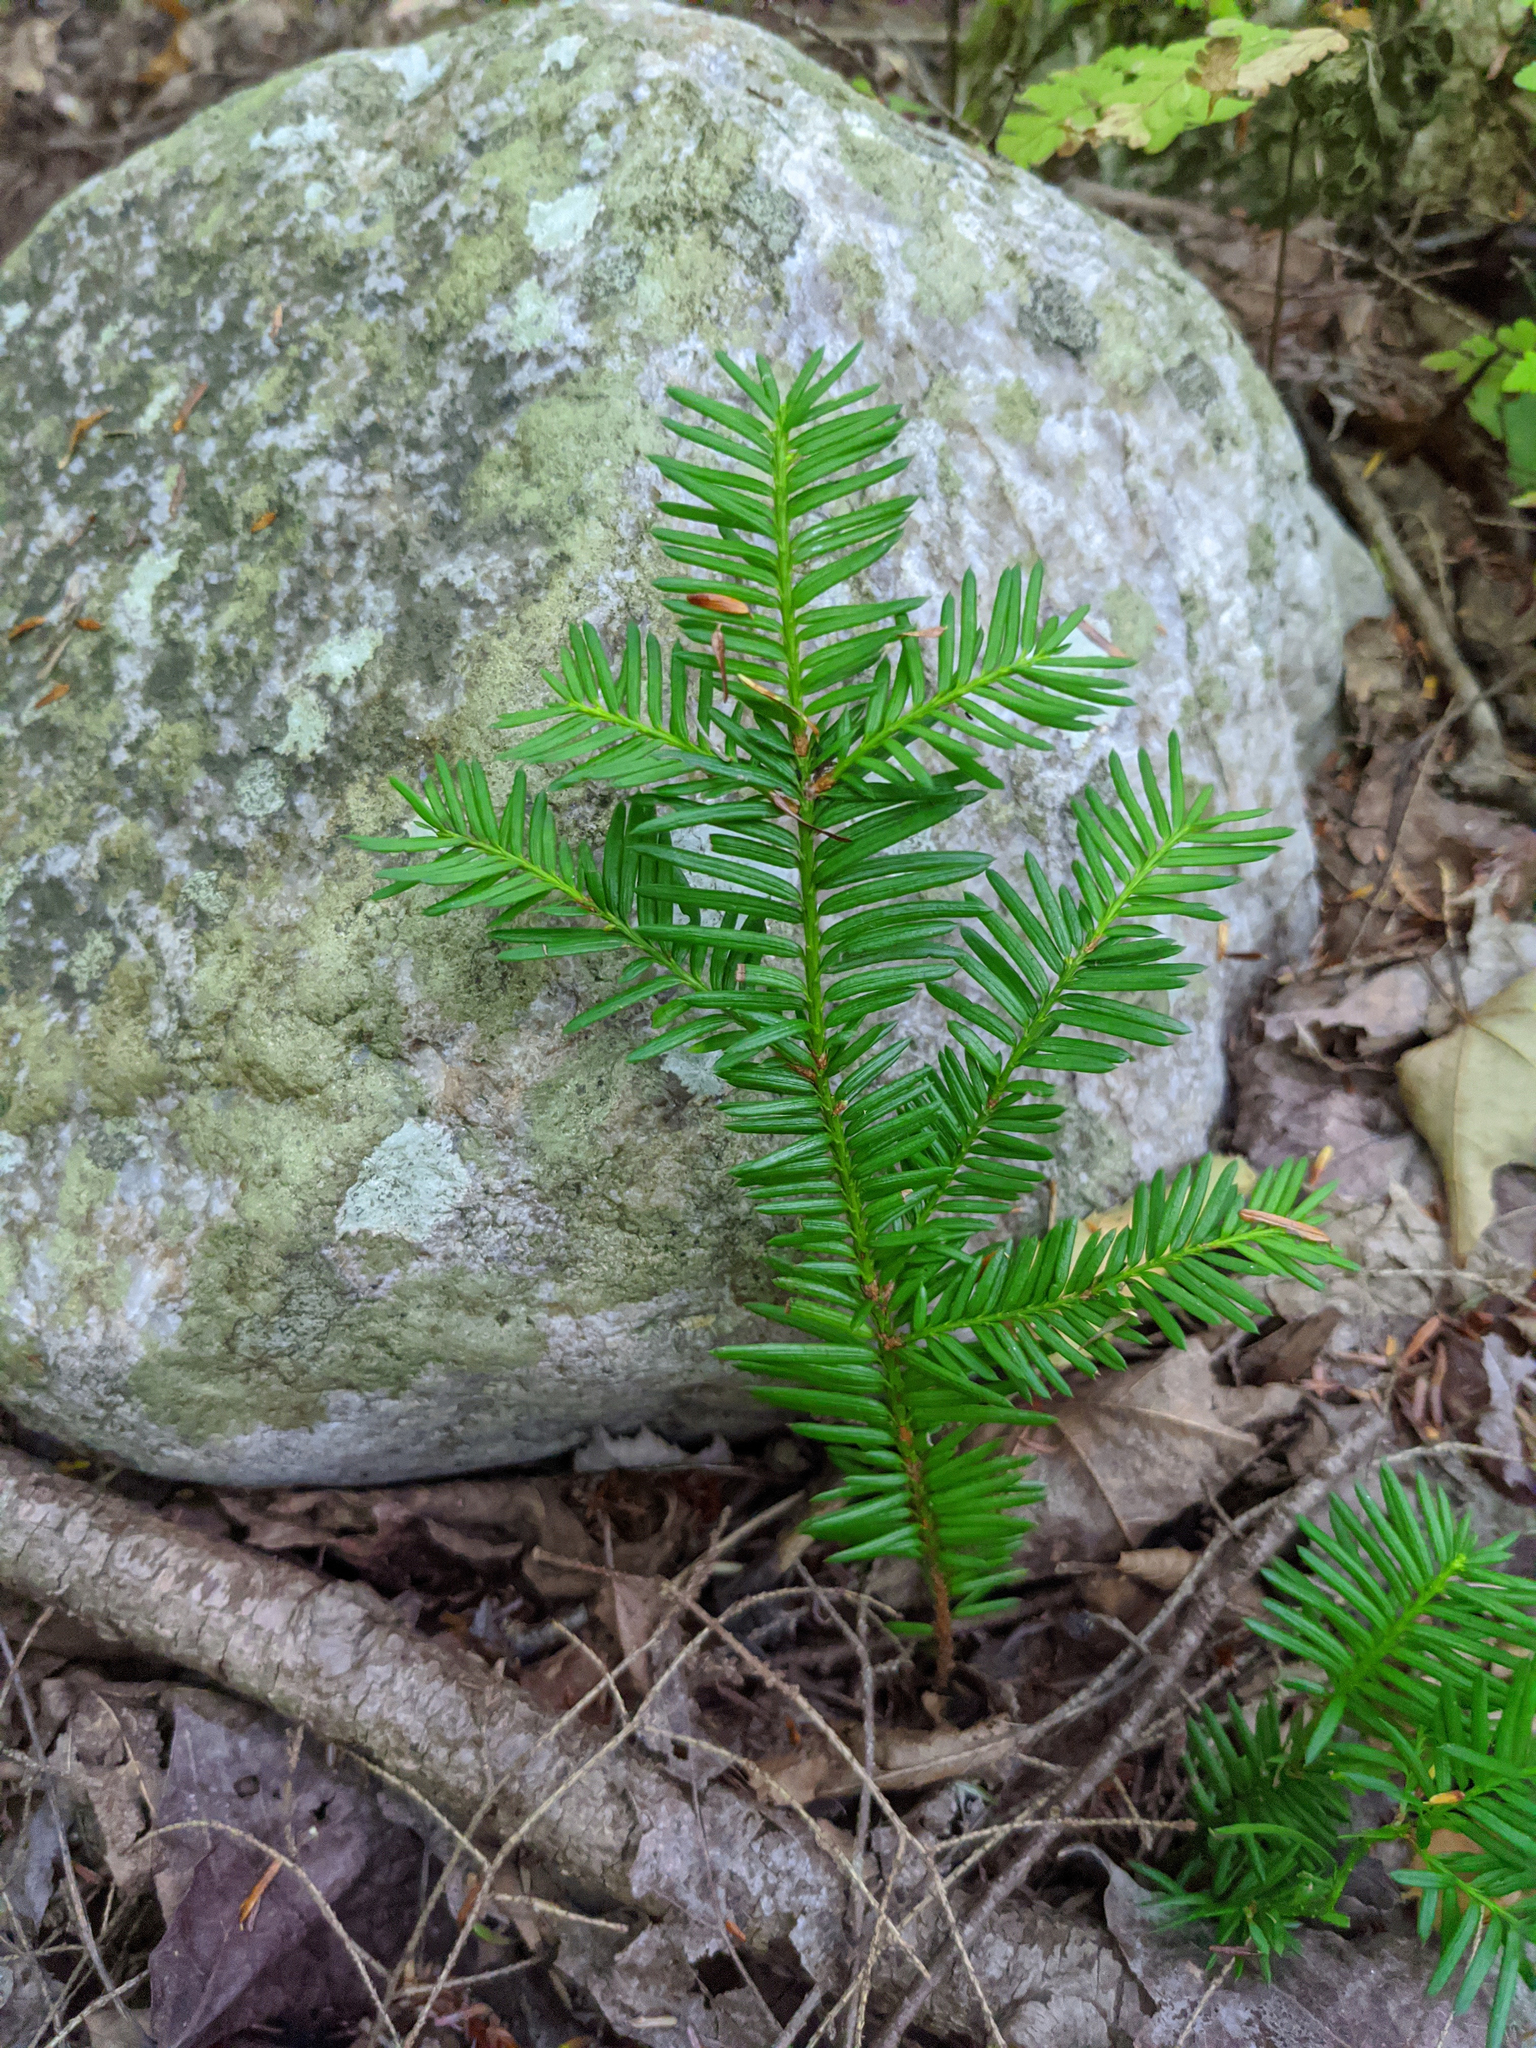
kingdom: Plantae
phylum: Tracheophyta
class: Pinopsida
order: Pinales
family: Taxaceae
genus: Taxus
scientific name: Taxus canadensis
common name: American yew
